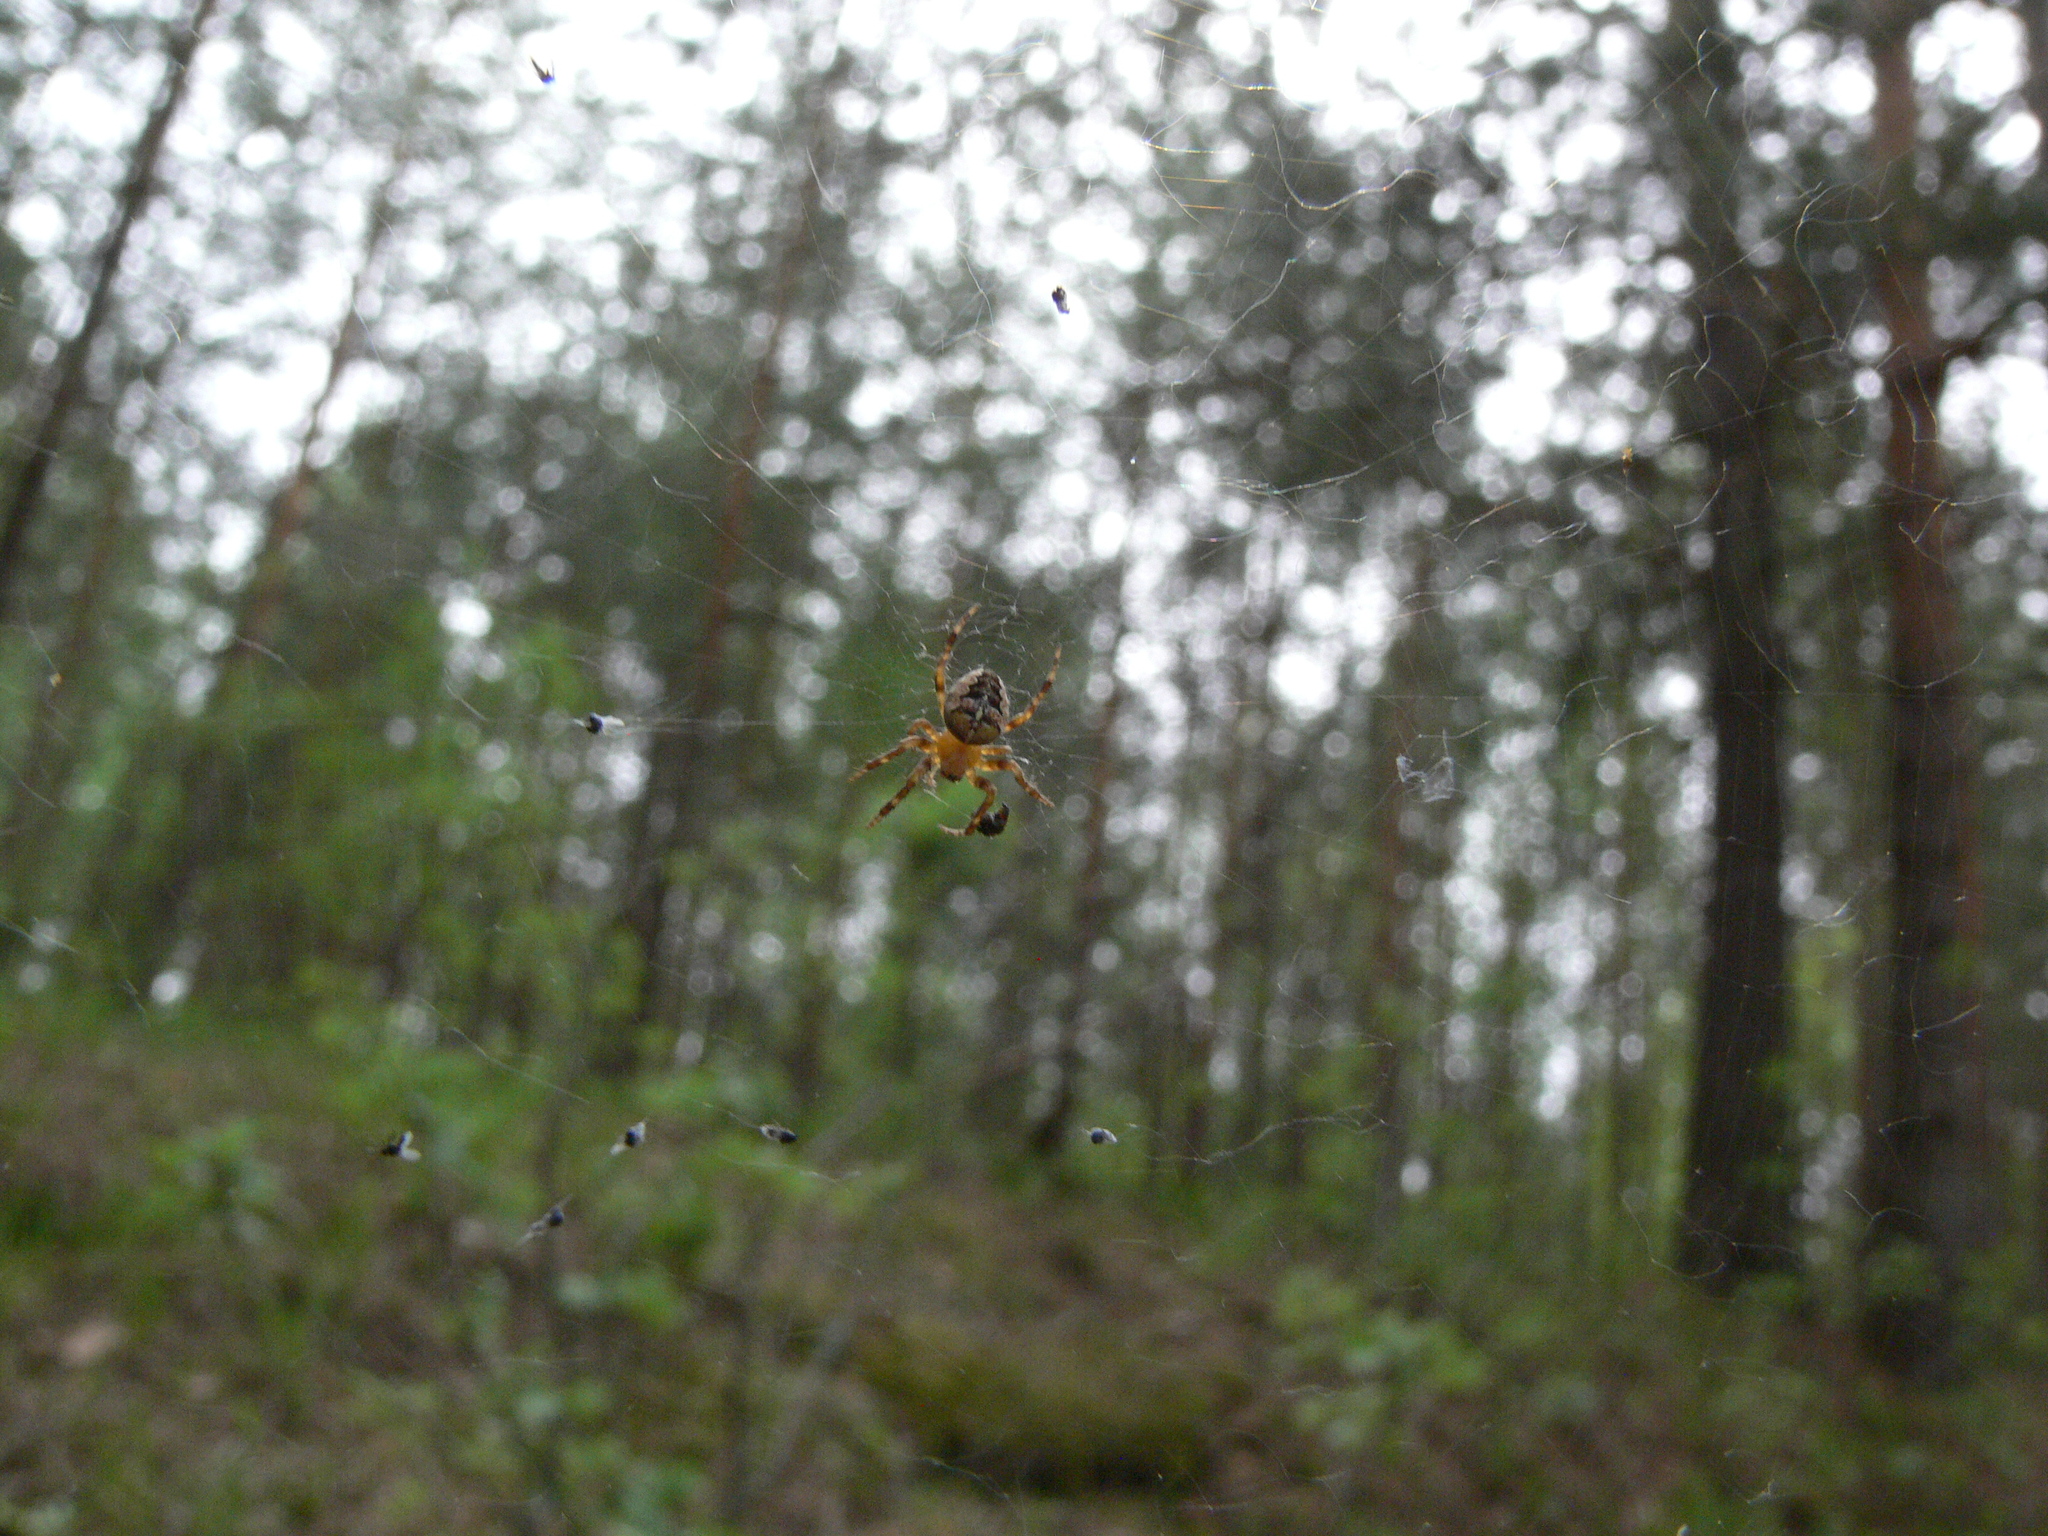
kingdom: Animalia
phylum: Arthropoda
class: Arachnida
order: Araneae
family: Araneidae
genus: Araneus
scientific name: Araneus diadematus
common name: Cross orbweaver
